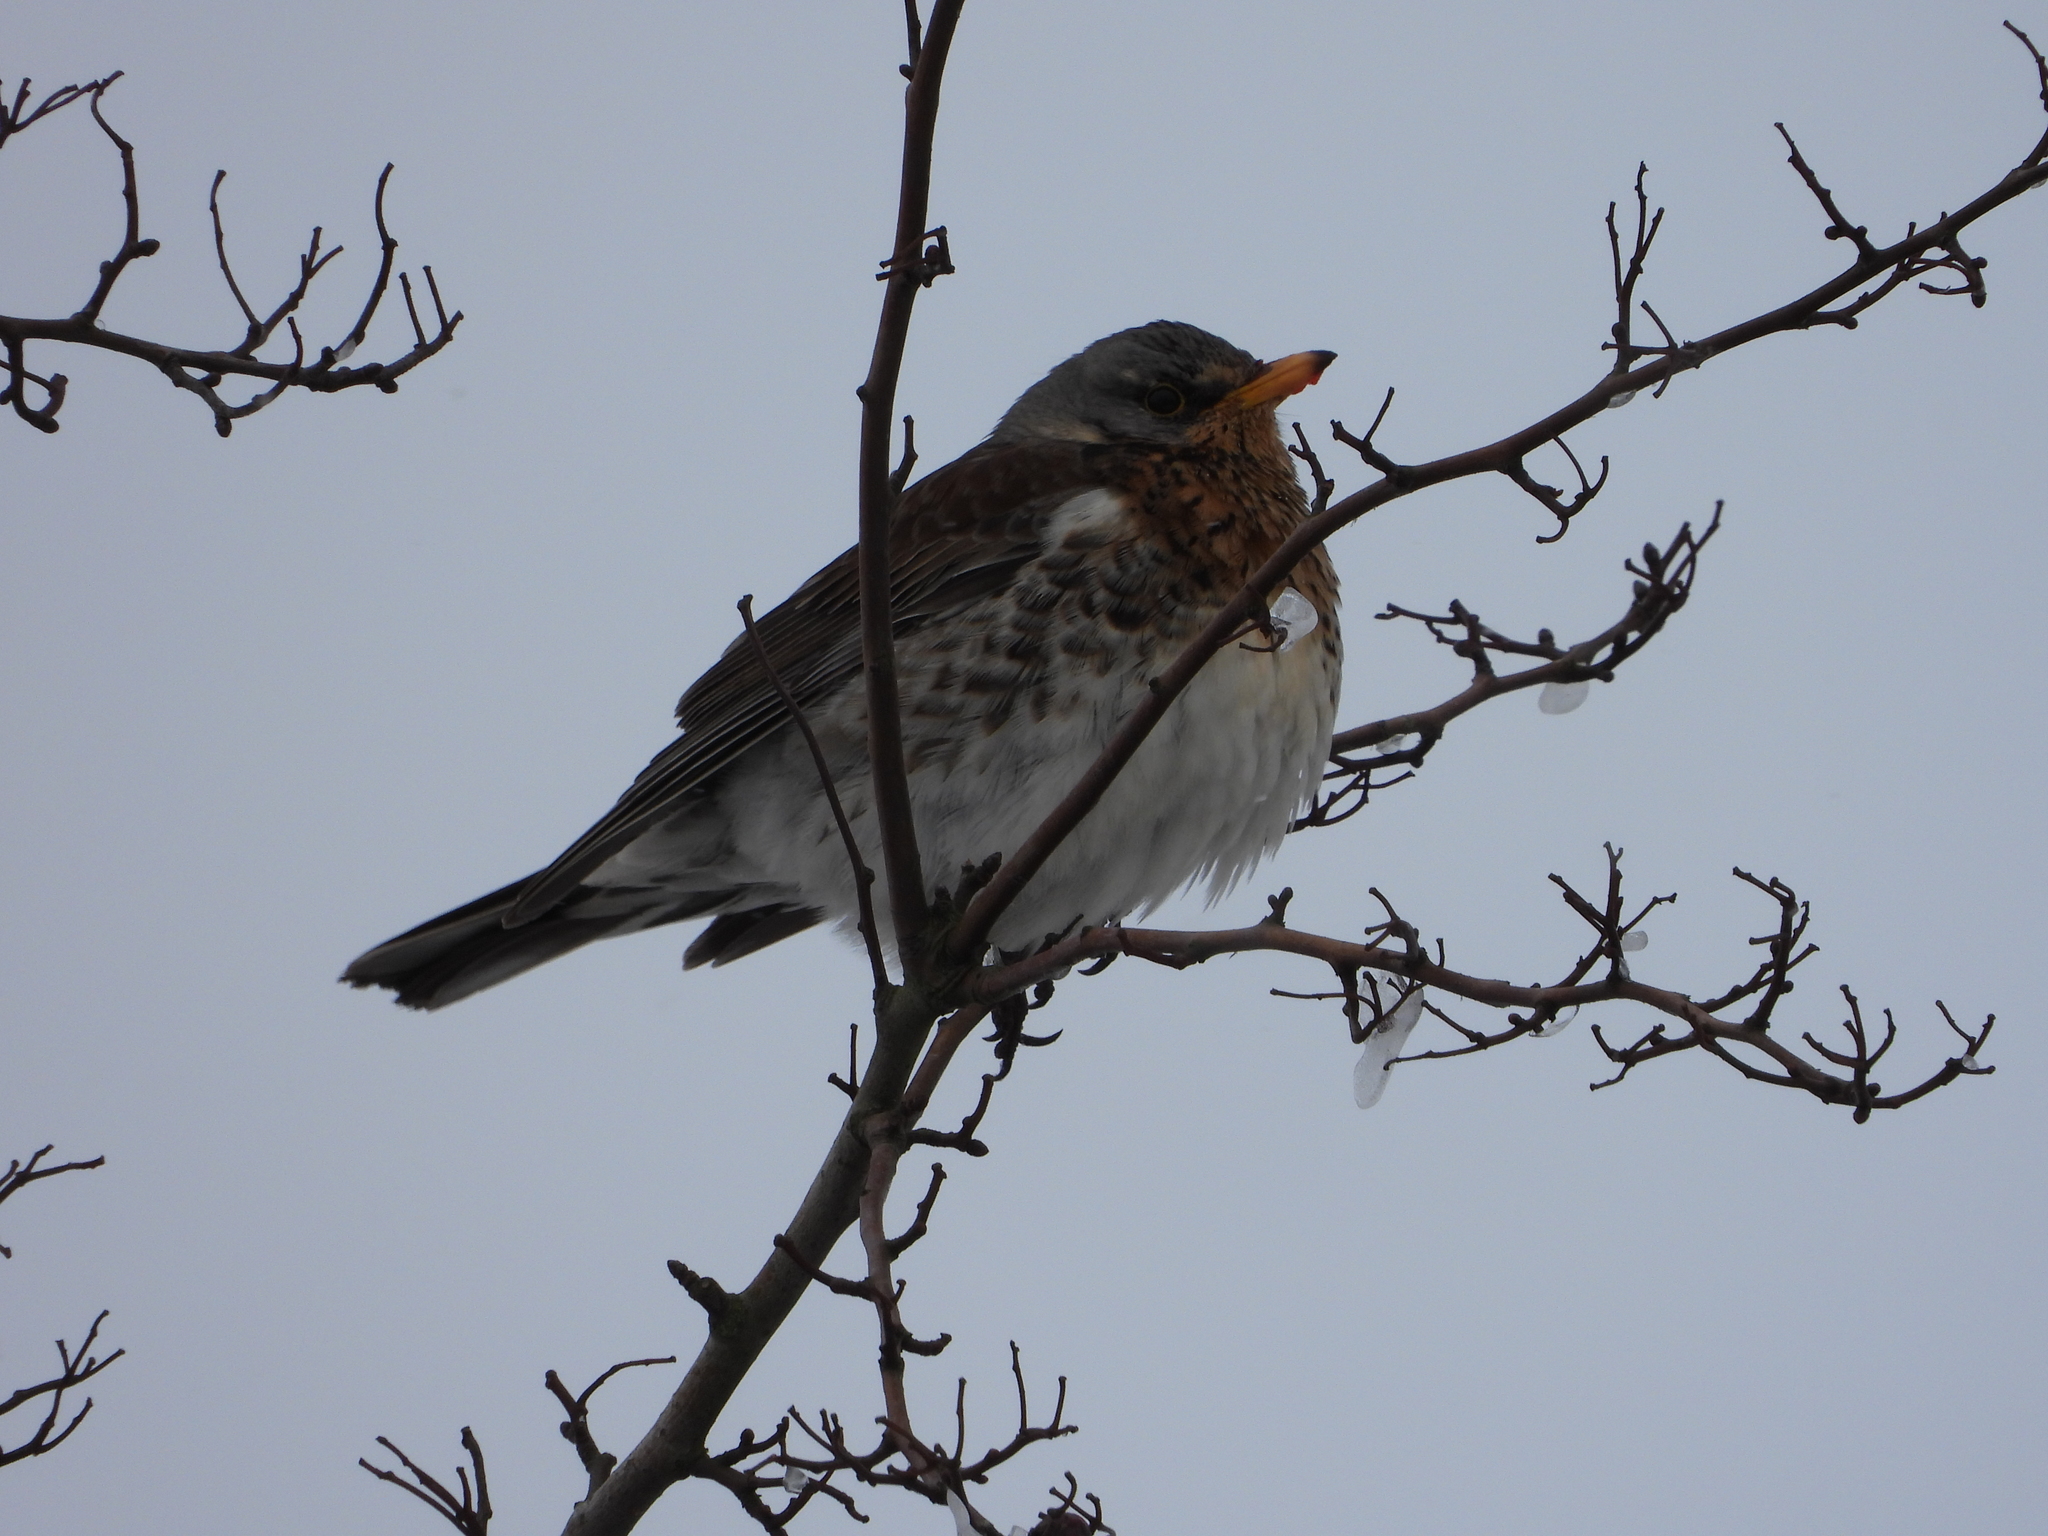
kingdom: Animalia
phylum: Chordata
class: Aves
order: Passeriformes
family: Turdidae
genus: Turdus
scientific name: Turdus pilaris
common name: Fieldfare
